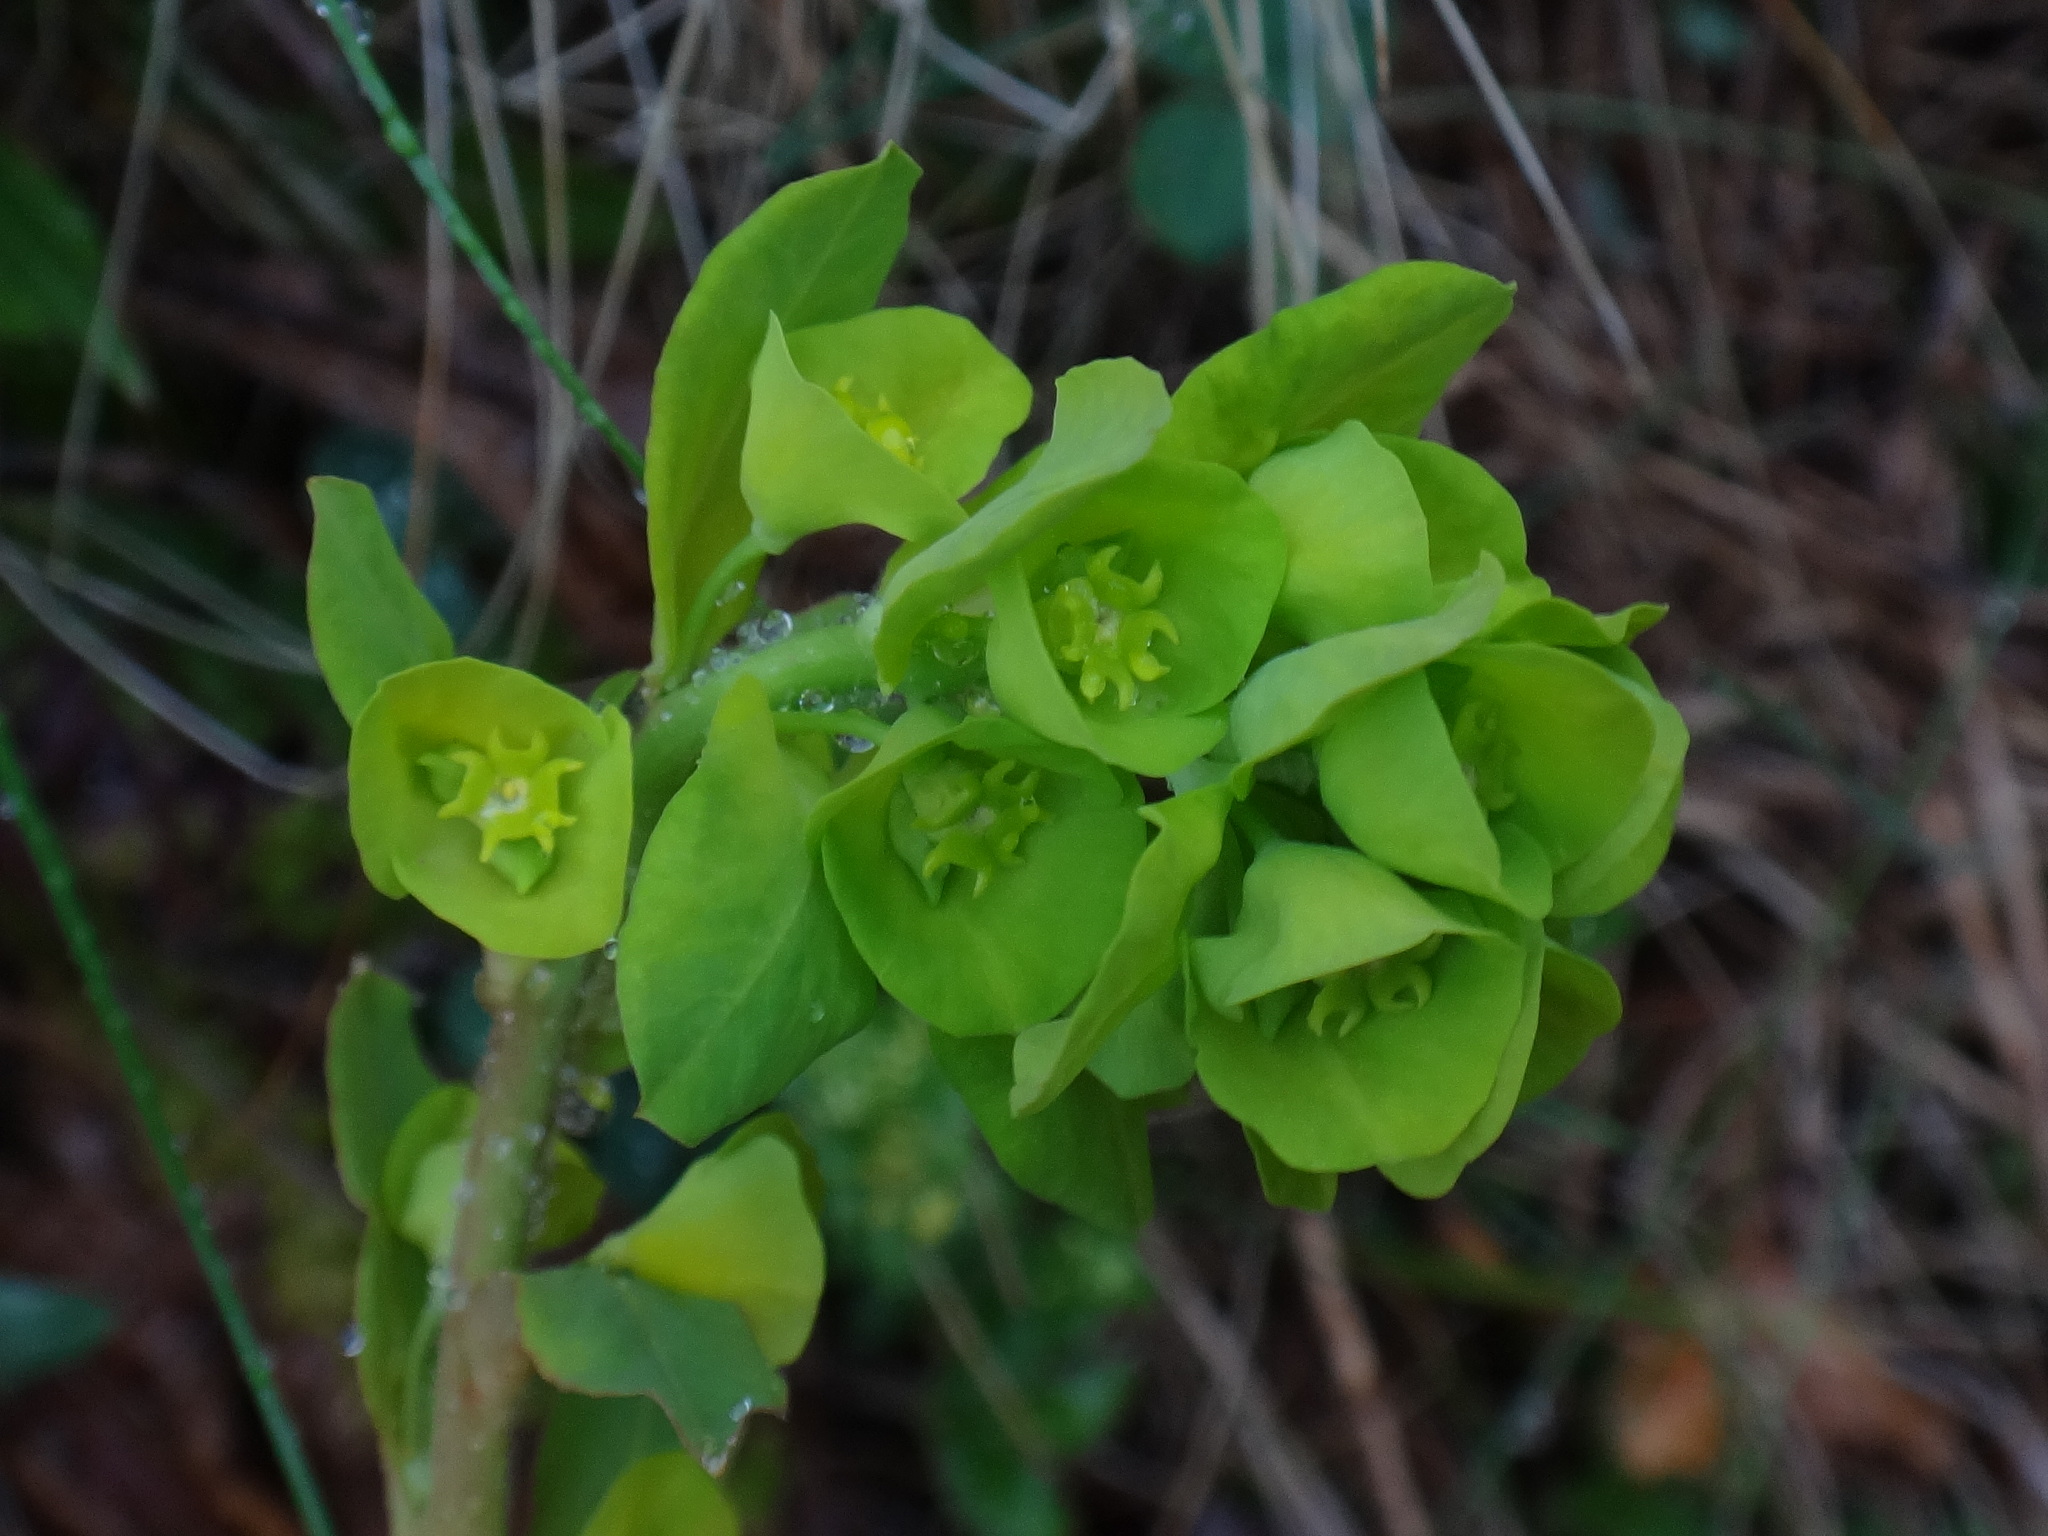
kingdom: Plantae
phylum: Tracheophyta
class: Magnoliopsida
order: Malpighiales
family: Euphorbiaceae
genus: Euphorbia
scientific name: Euphorbia amygdaloides
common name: Wood spurge
